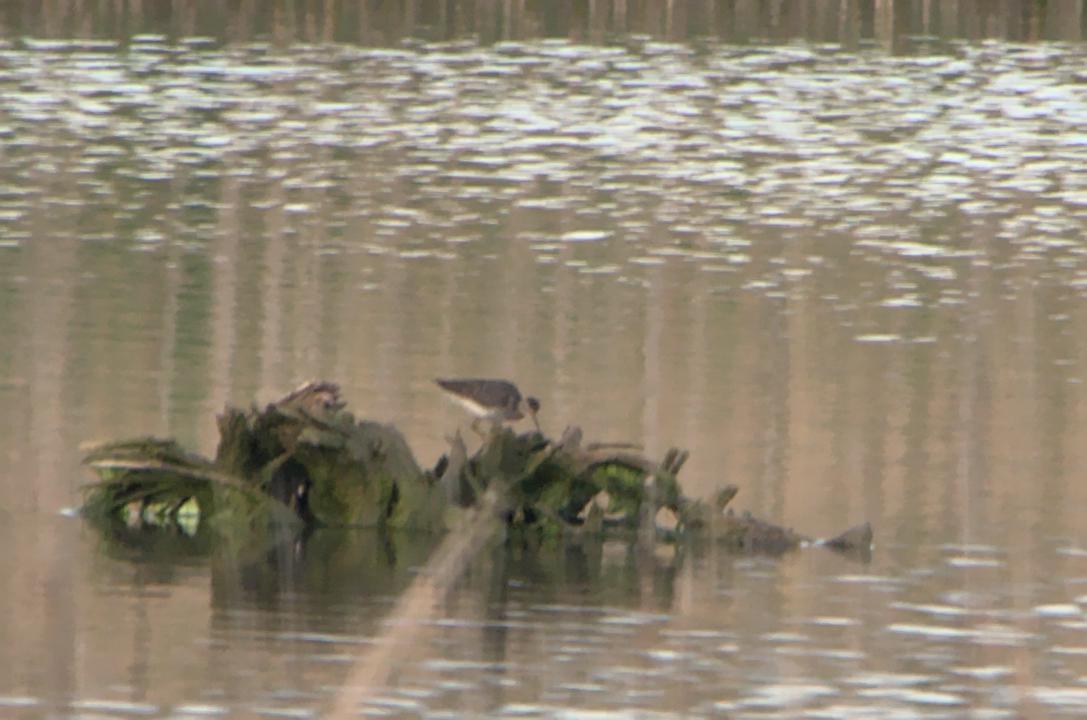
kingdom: Animalia
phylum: Chordata
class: Aves
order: Charadriiformes
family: Scolopacidae
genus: Tringa
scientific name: Tringa glareola
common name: Wood sandpiper
